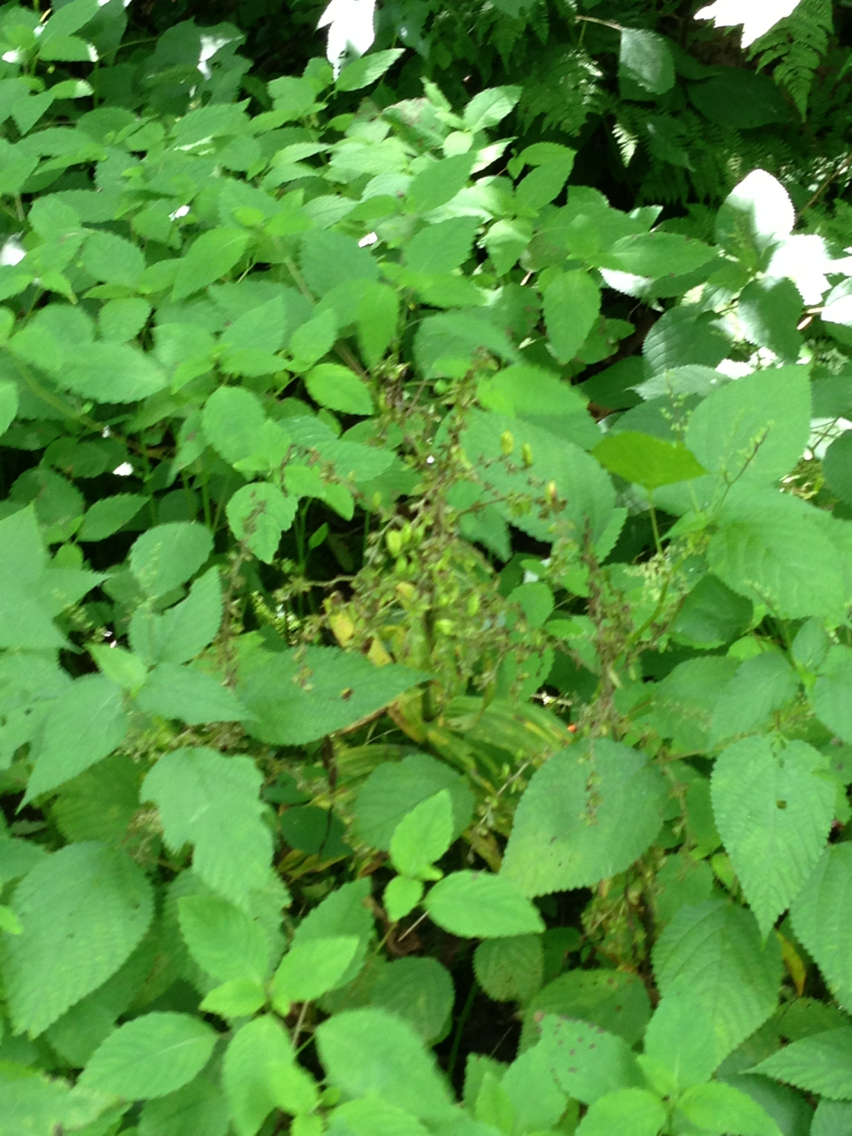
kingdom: Plantae
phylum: Tracheophyta
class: Liliopsida
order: Liliales
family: Melanthiaceae
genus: Veratrum
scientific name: Veratrum viride
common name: American false hellebore
